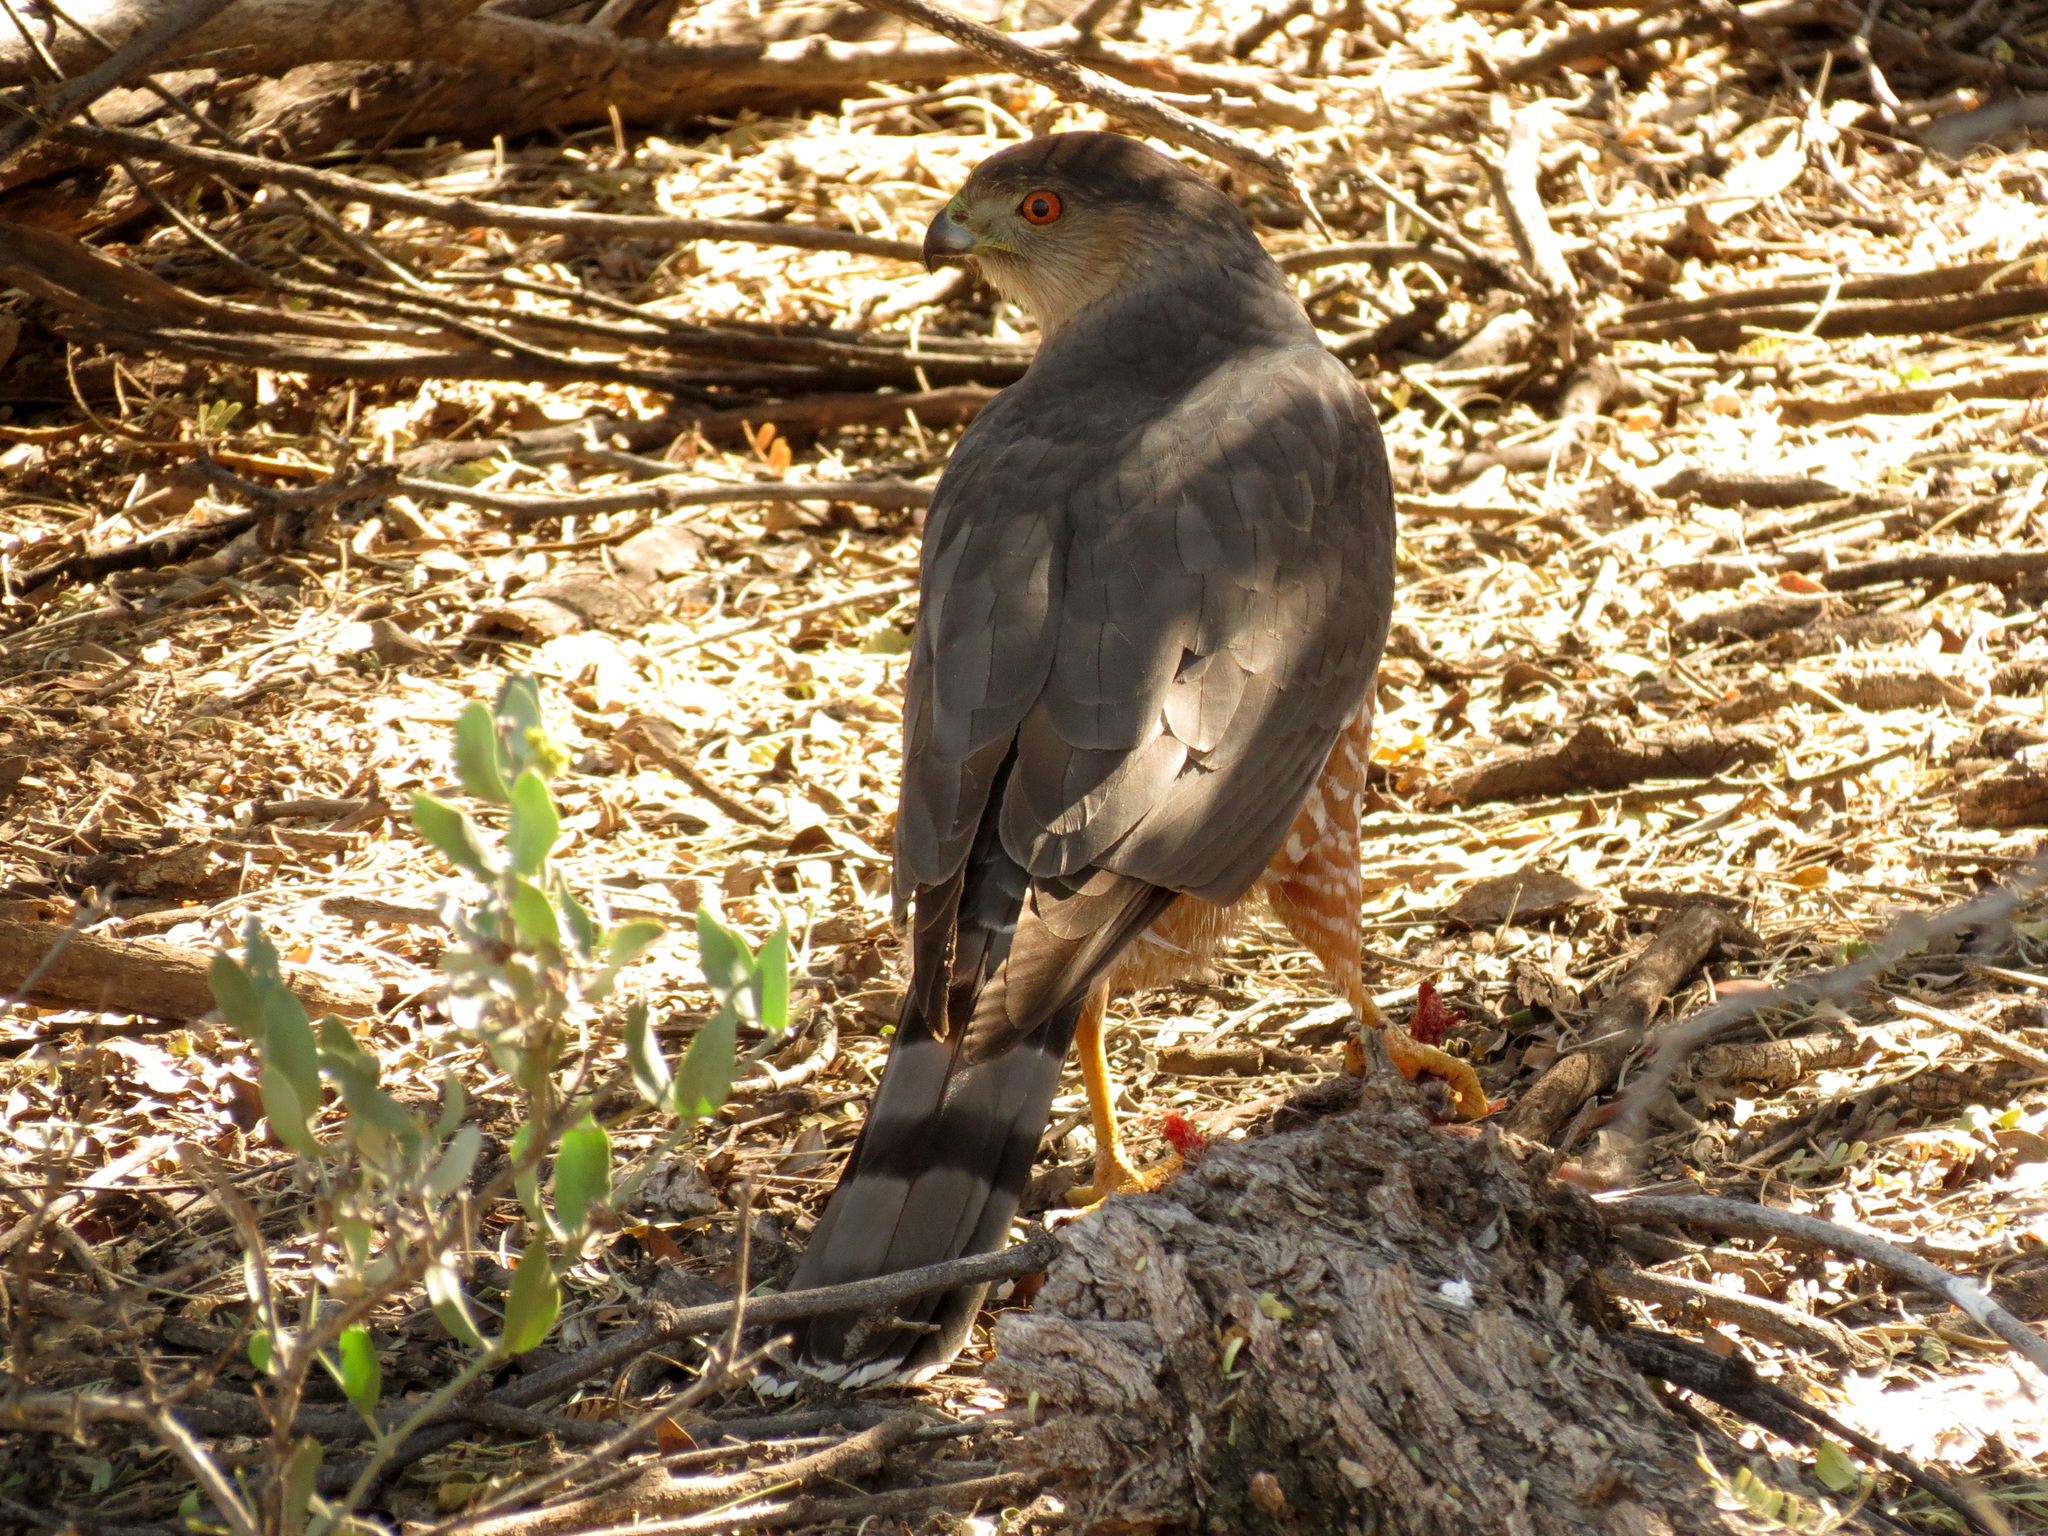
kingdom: Animalia
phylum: Chordata
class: Aves
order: Accipitriformes
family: Accipitridae
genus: Accipiter
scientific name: Accipiter cooperii
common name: Cooper's hawk
